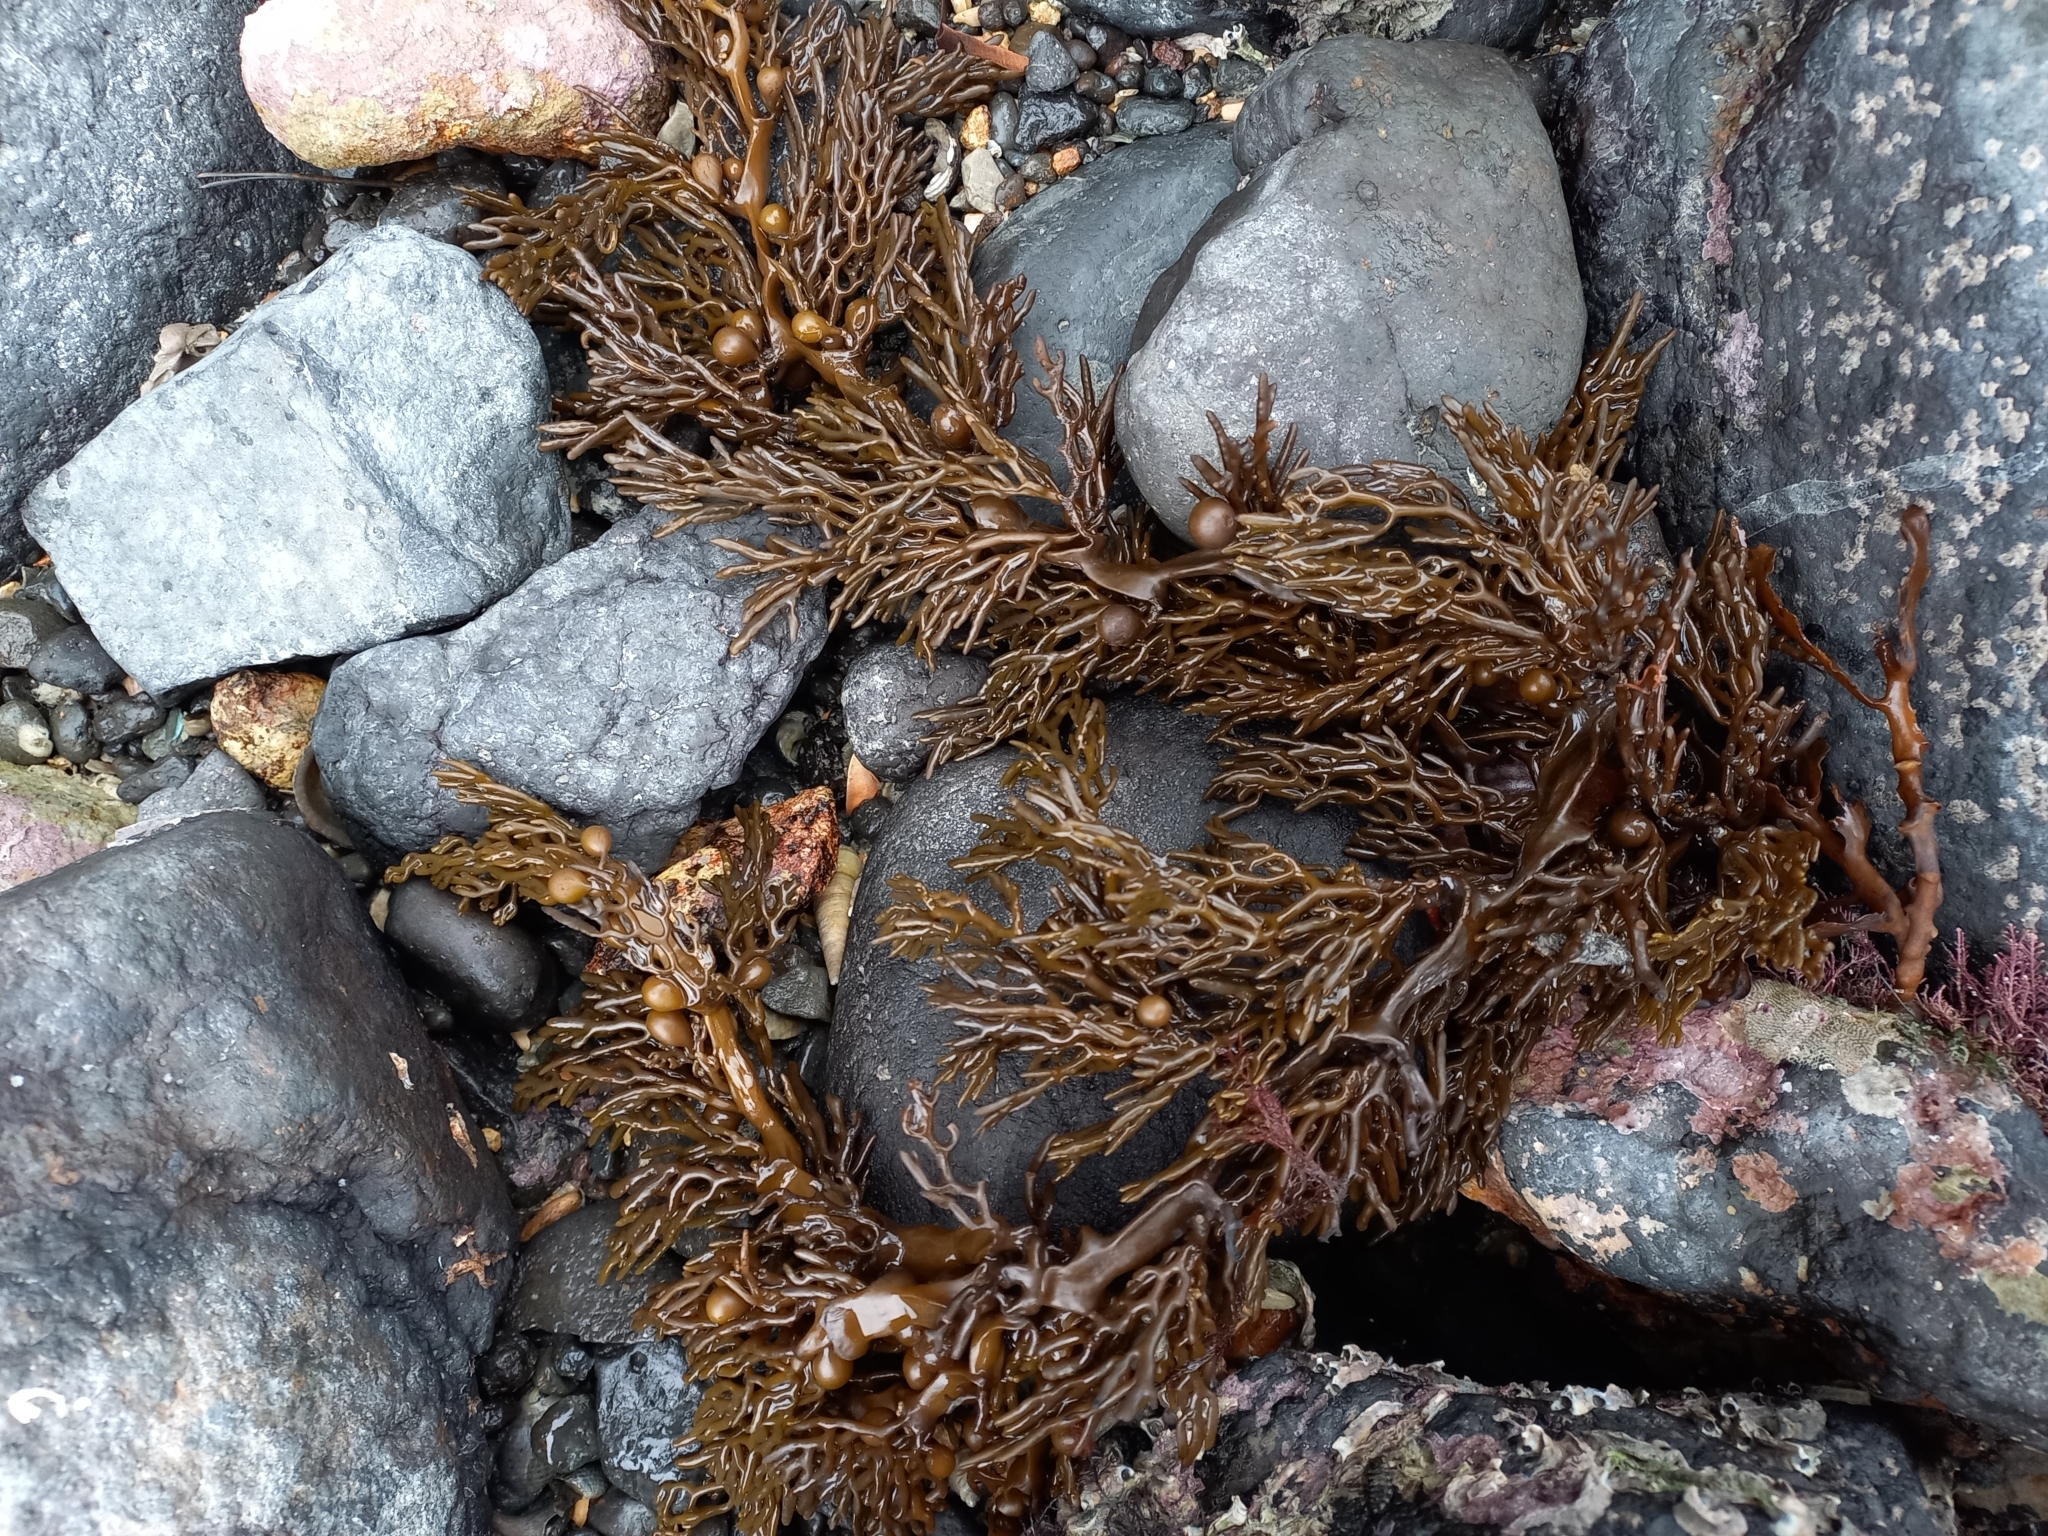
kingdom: Chromista
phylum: Ochrophyta
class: Phaeophyceae
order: Fucales
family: Sargassaceae
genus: Cystophora
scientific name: Cystophora scalaris
